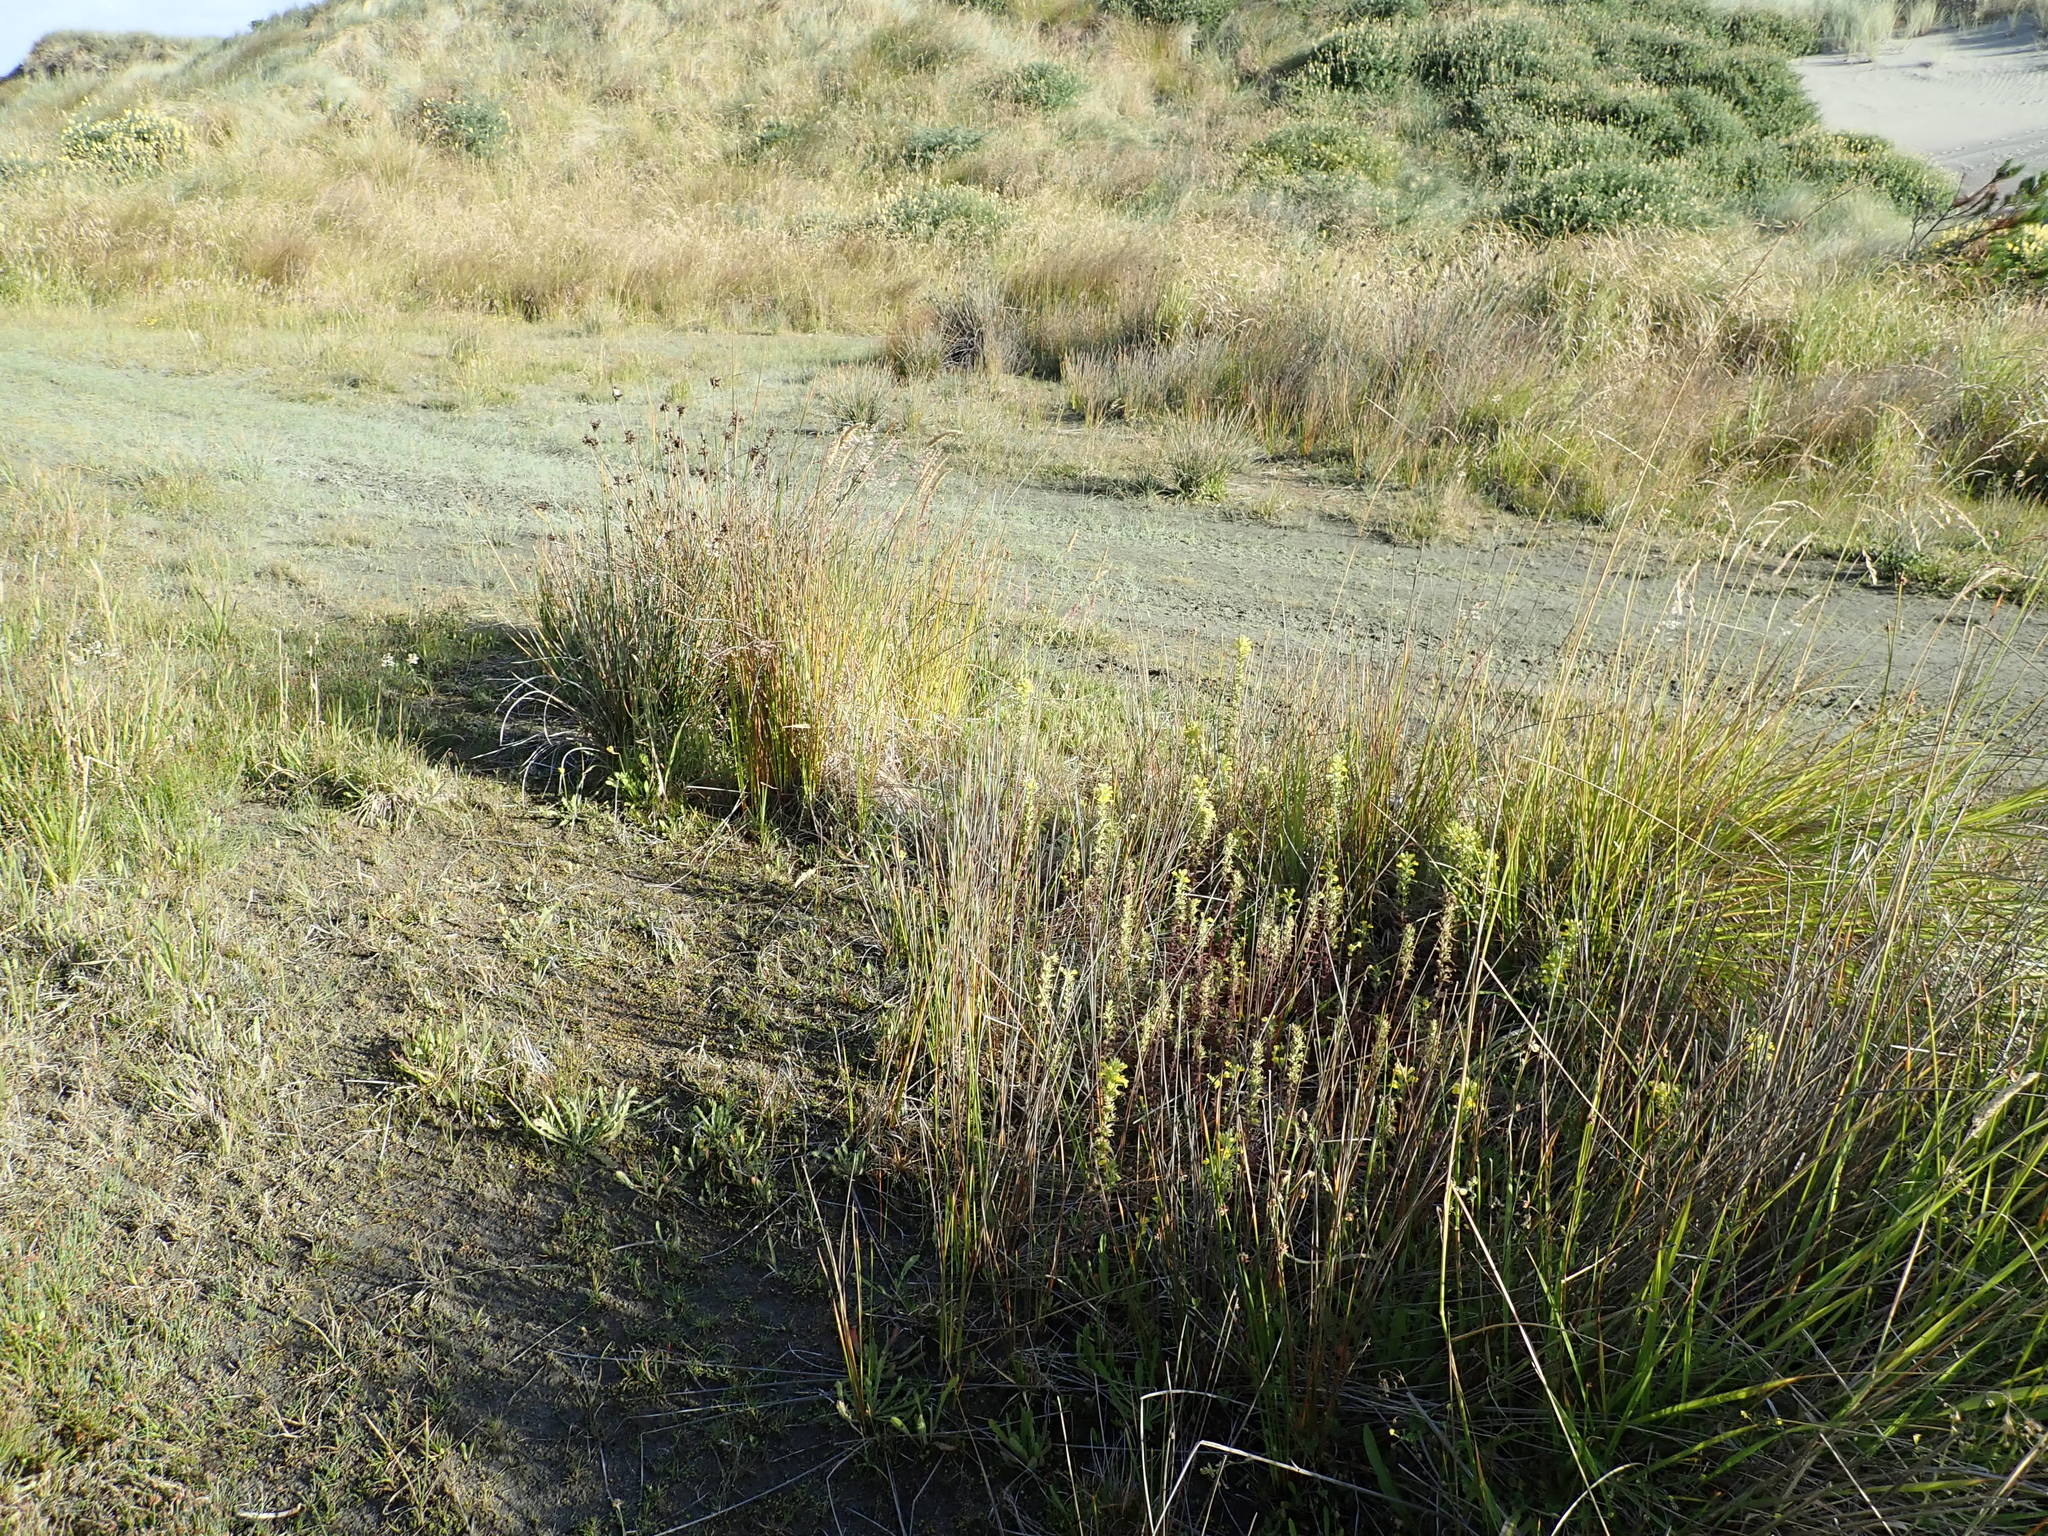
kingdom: Plantae
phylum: Tracheophyta
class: Magnoliopsida
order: Lamiales
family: Orobanchaceae
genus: Bellardia
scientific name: Bellardia viscosa
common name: Sticky parentucellia
